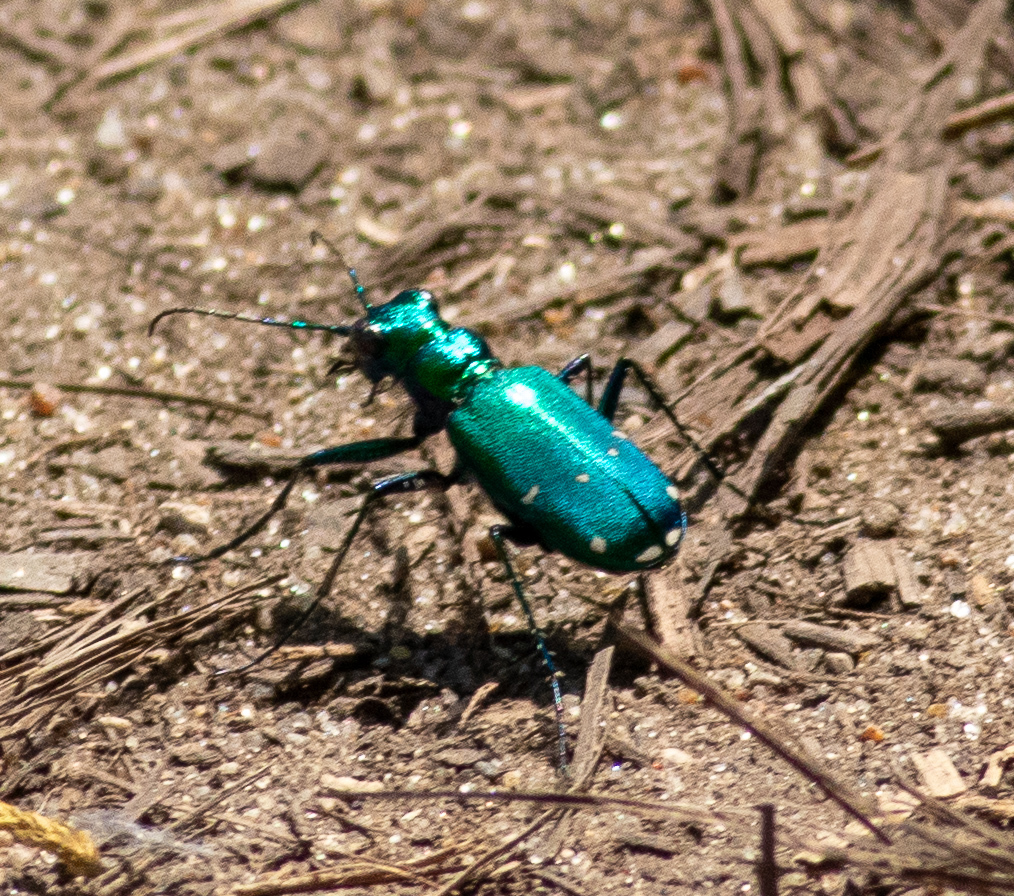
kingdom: Animalia
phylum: Arthropoda
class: Insecta
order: Coleoptera
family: Carabidae
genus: Cicindela
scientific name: Cicindela sexguttata
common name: Six-spotted tiger beetle
